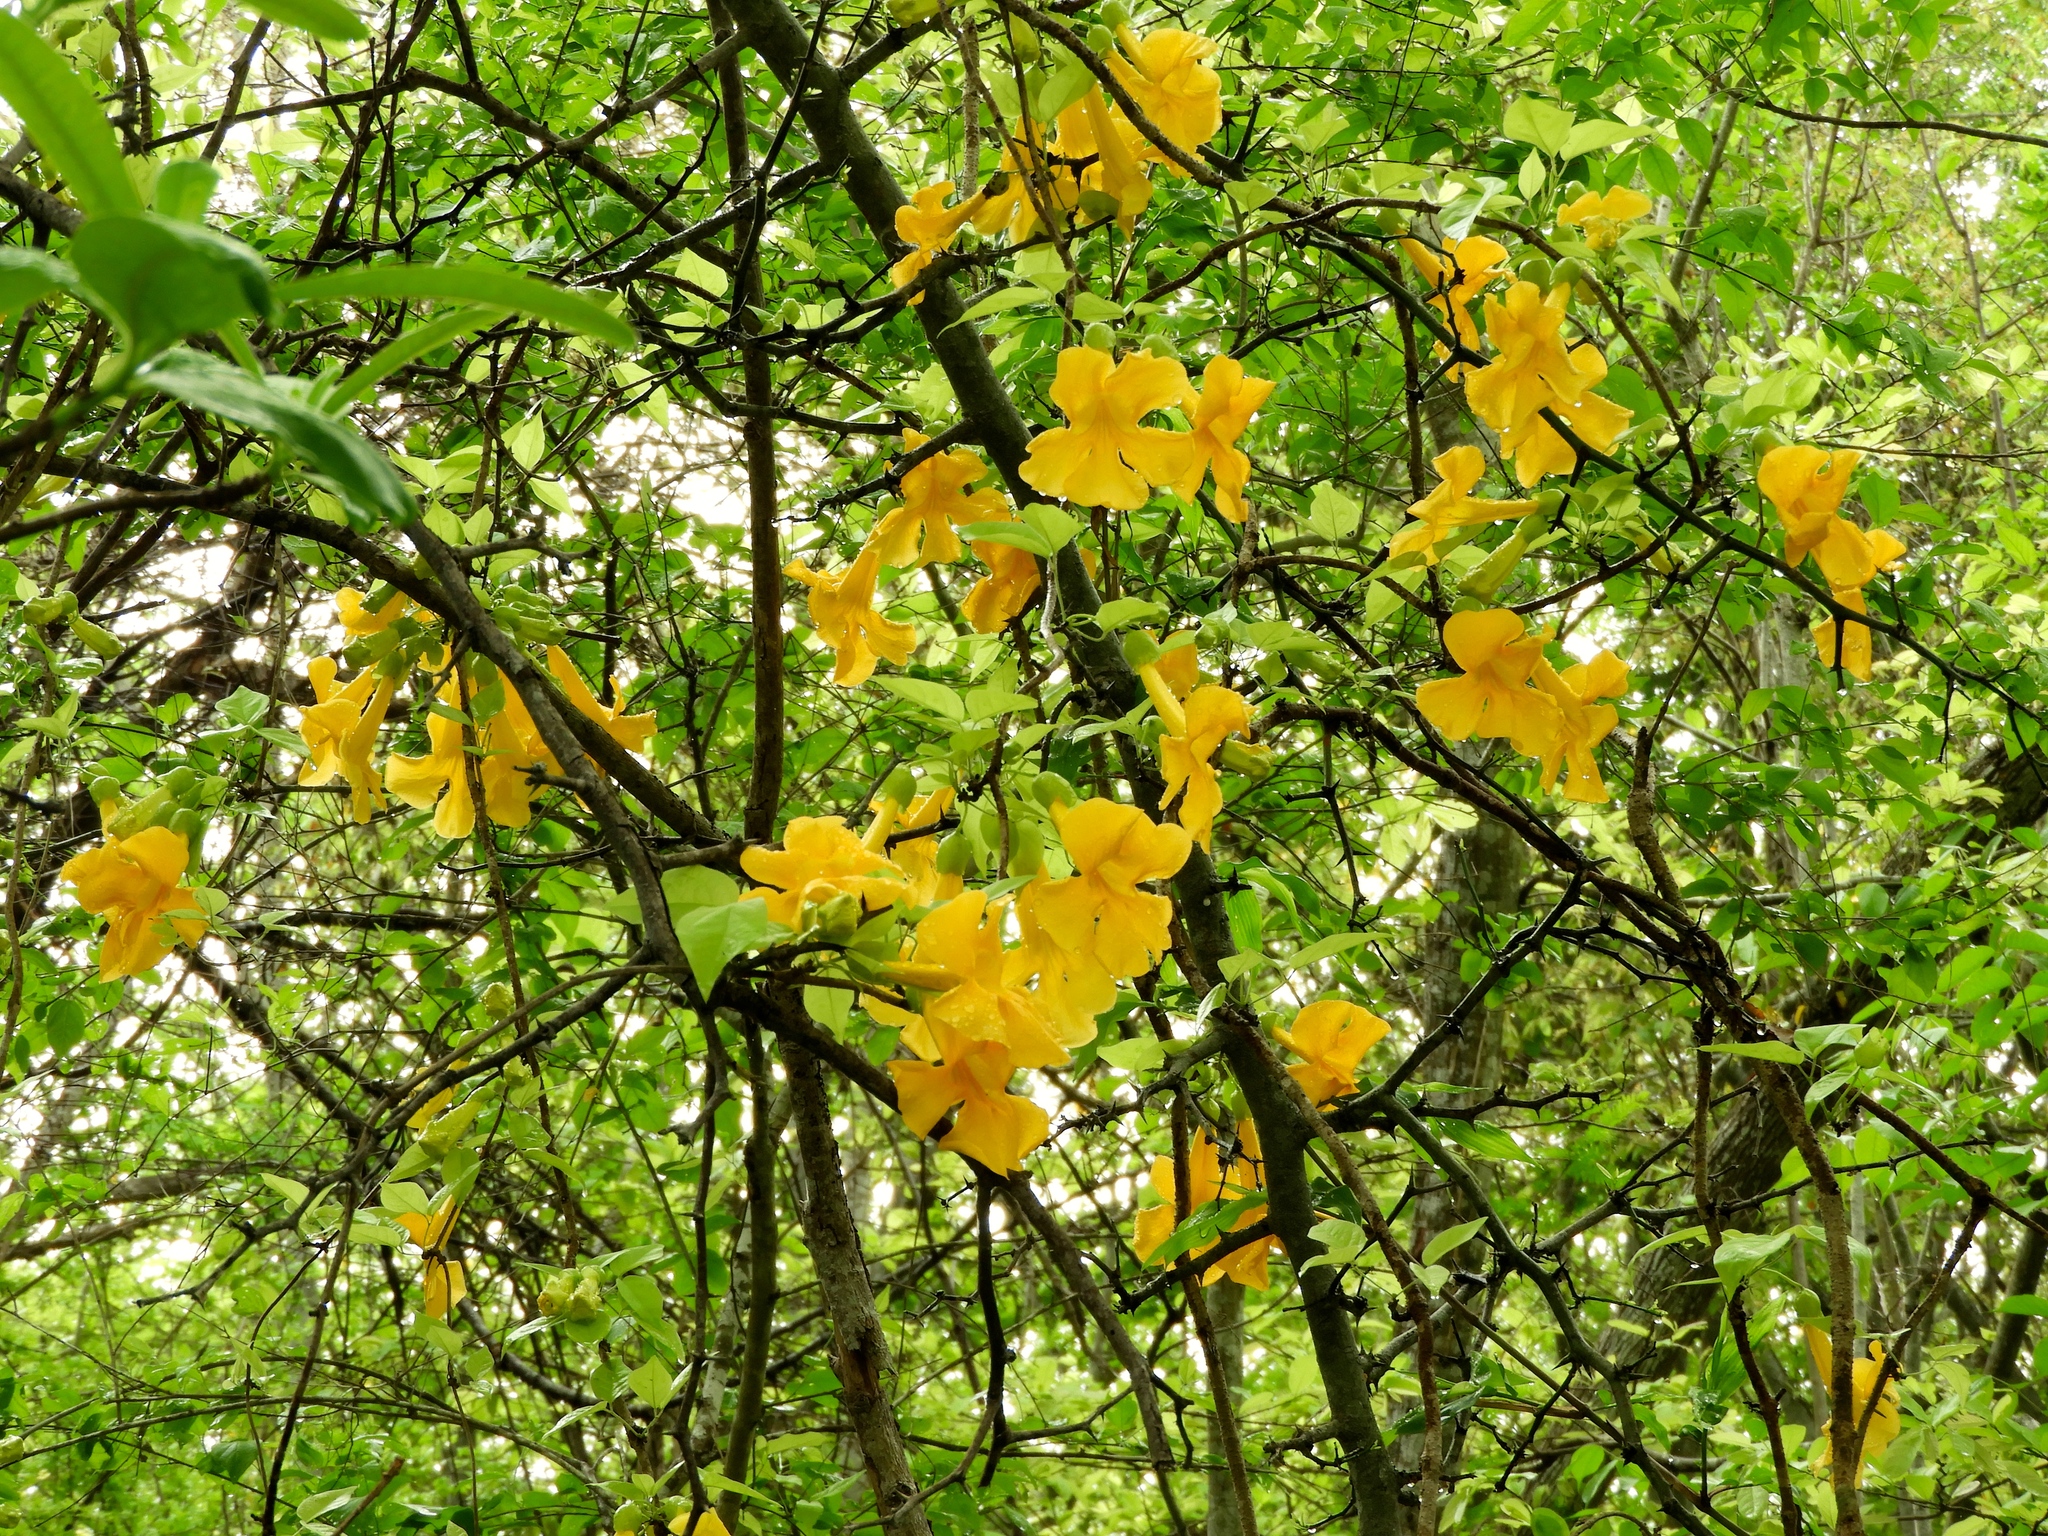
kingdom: Plantae
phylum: Tracheophyta
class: Magnoliopsida
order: Lamiales
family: Bignoniaceae
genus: Dolichandra
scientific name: Dolichandra unguis-cati
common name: Catclaw vine
